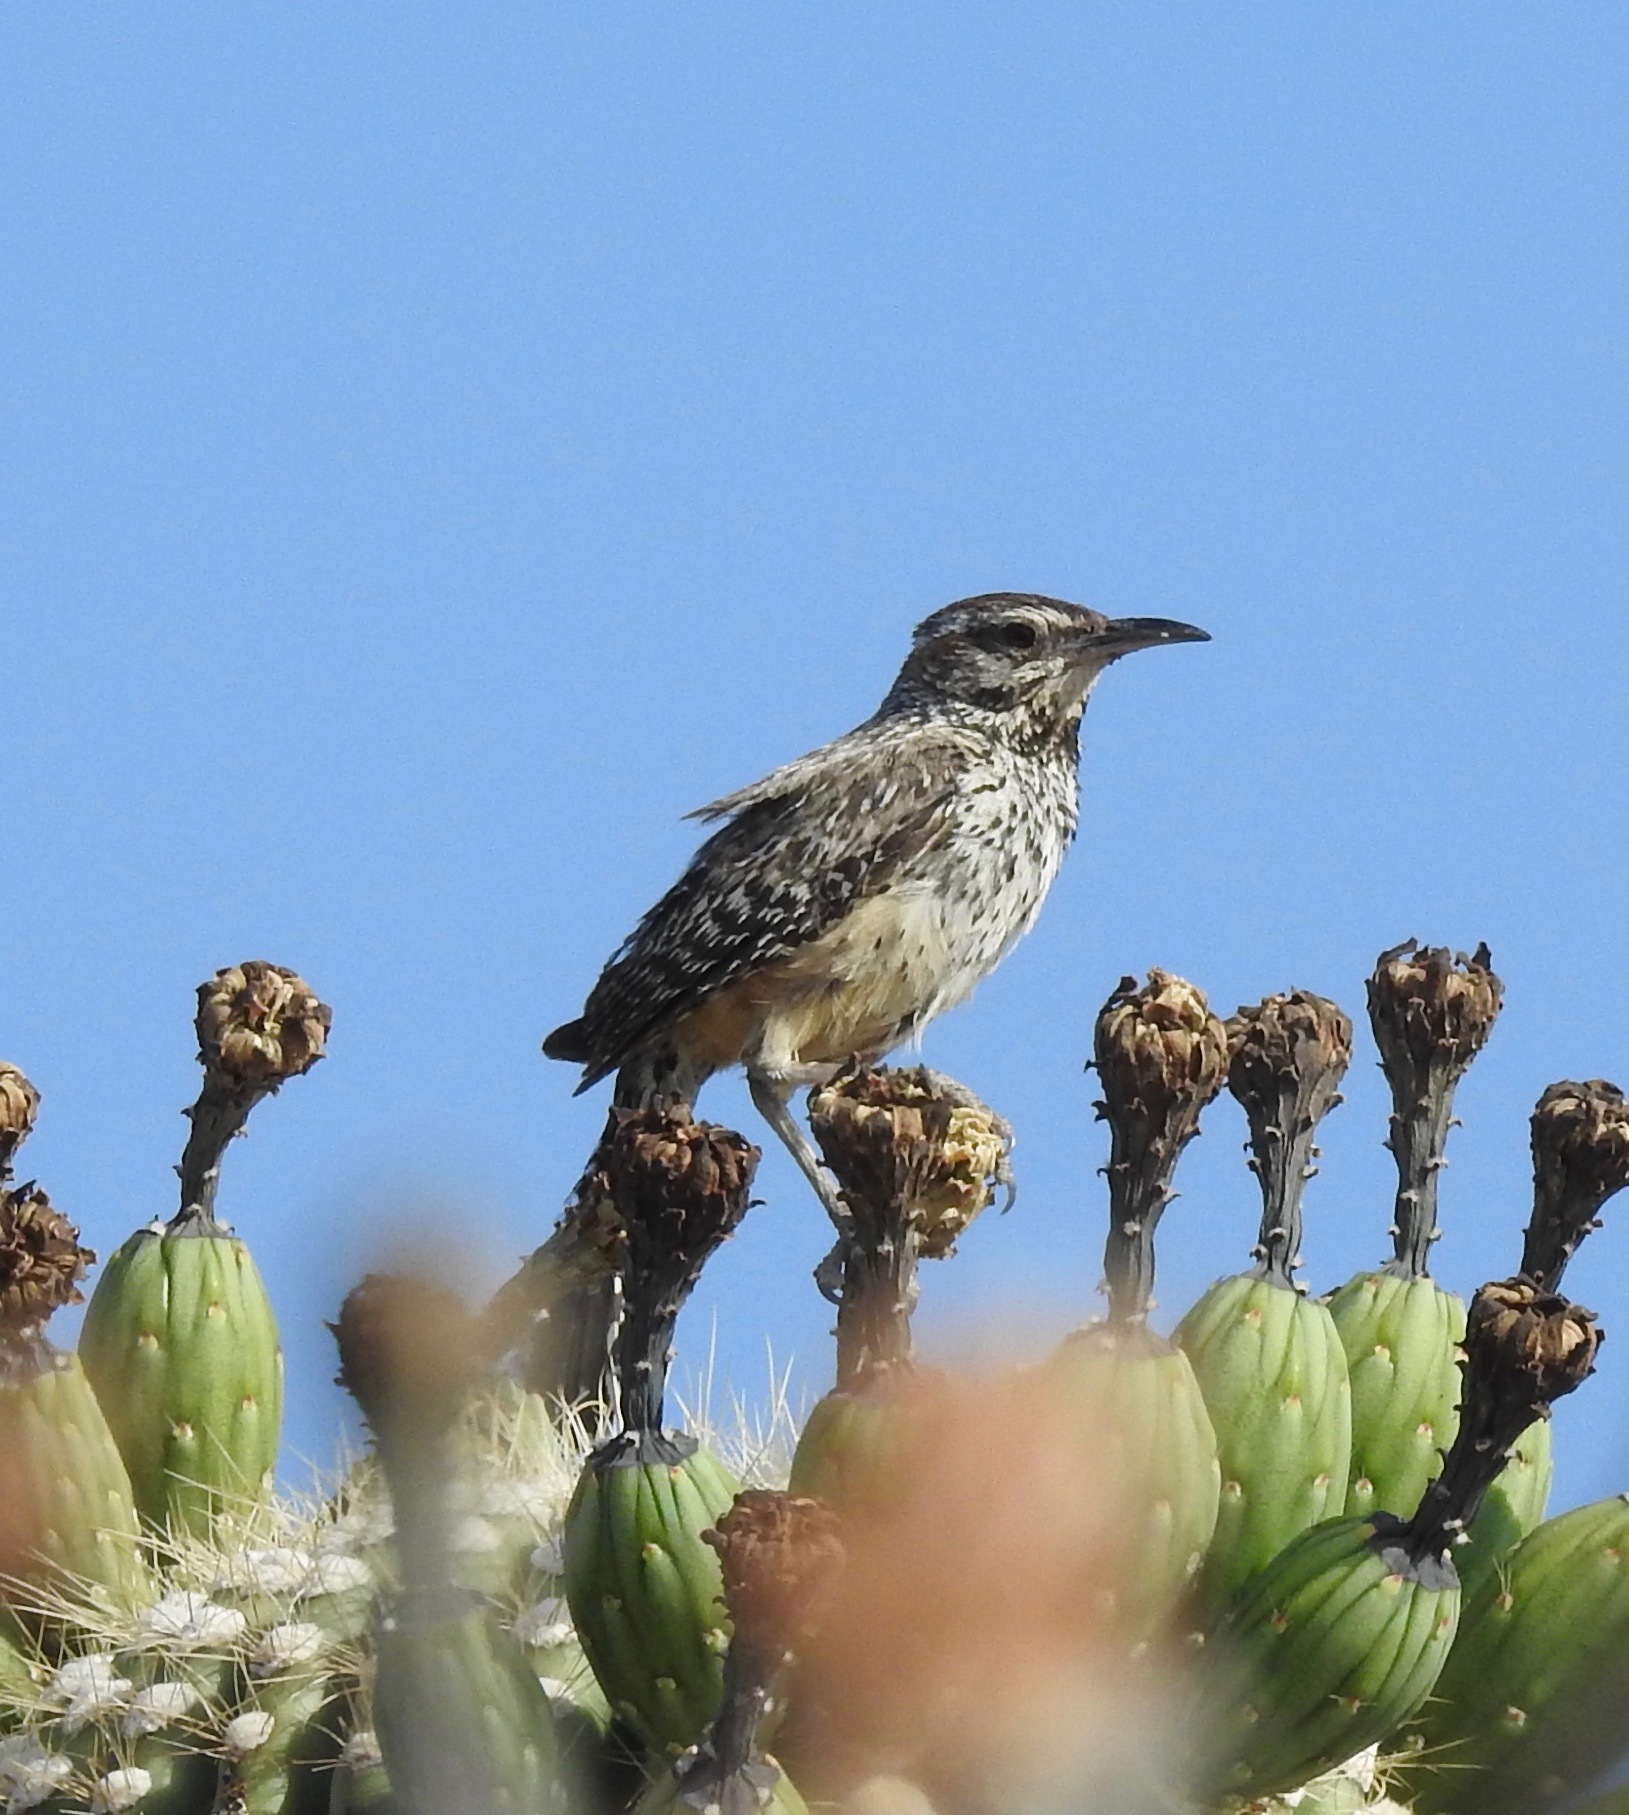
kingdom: Animalia
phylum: Chordata
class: Aves
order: Passeriformes
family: Troglodytidae
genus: Campylorhynchus
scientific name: Campylorhynchus brunneicapillus
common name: Cactus wren
